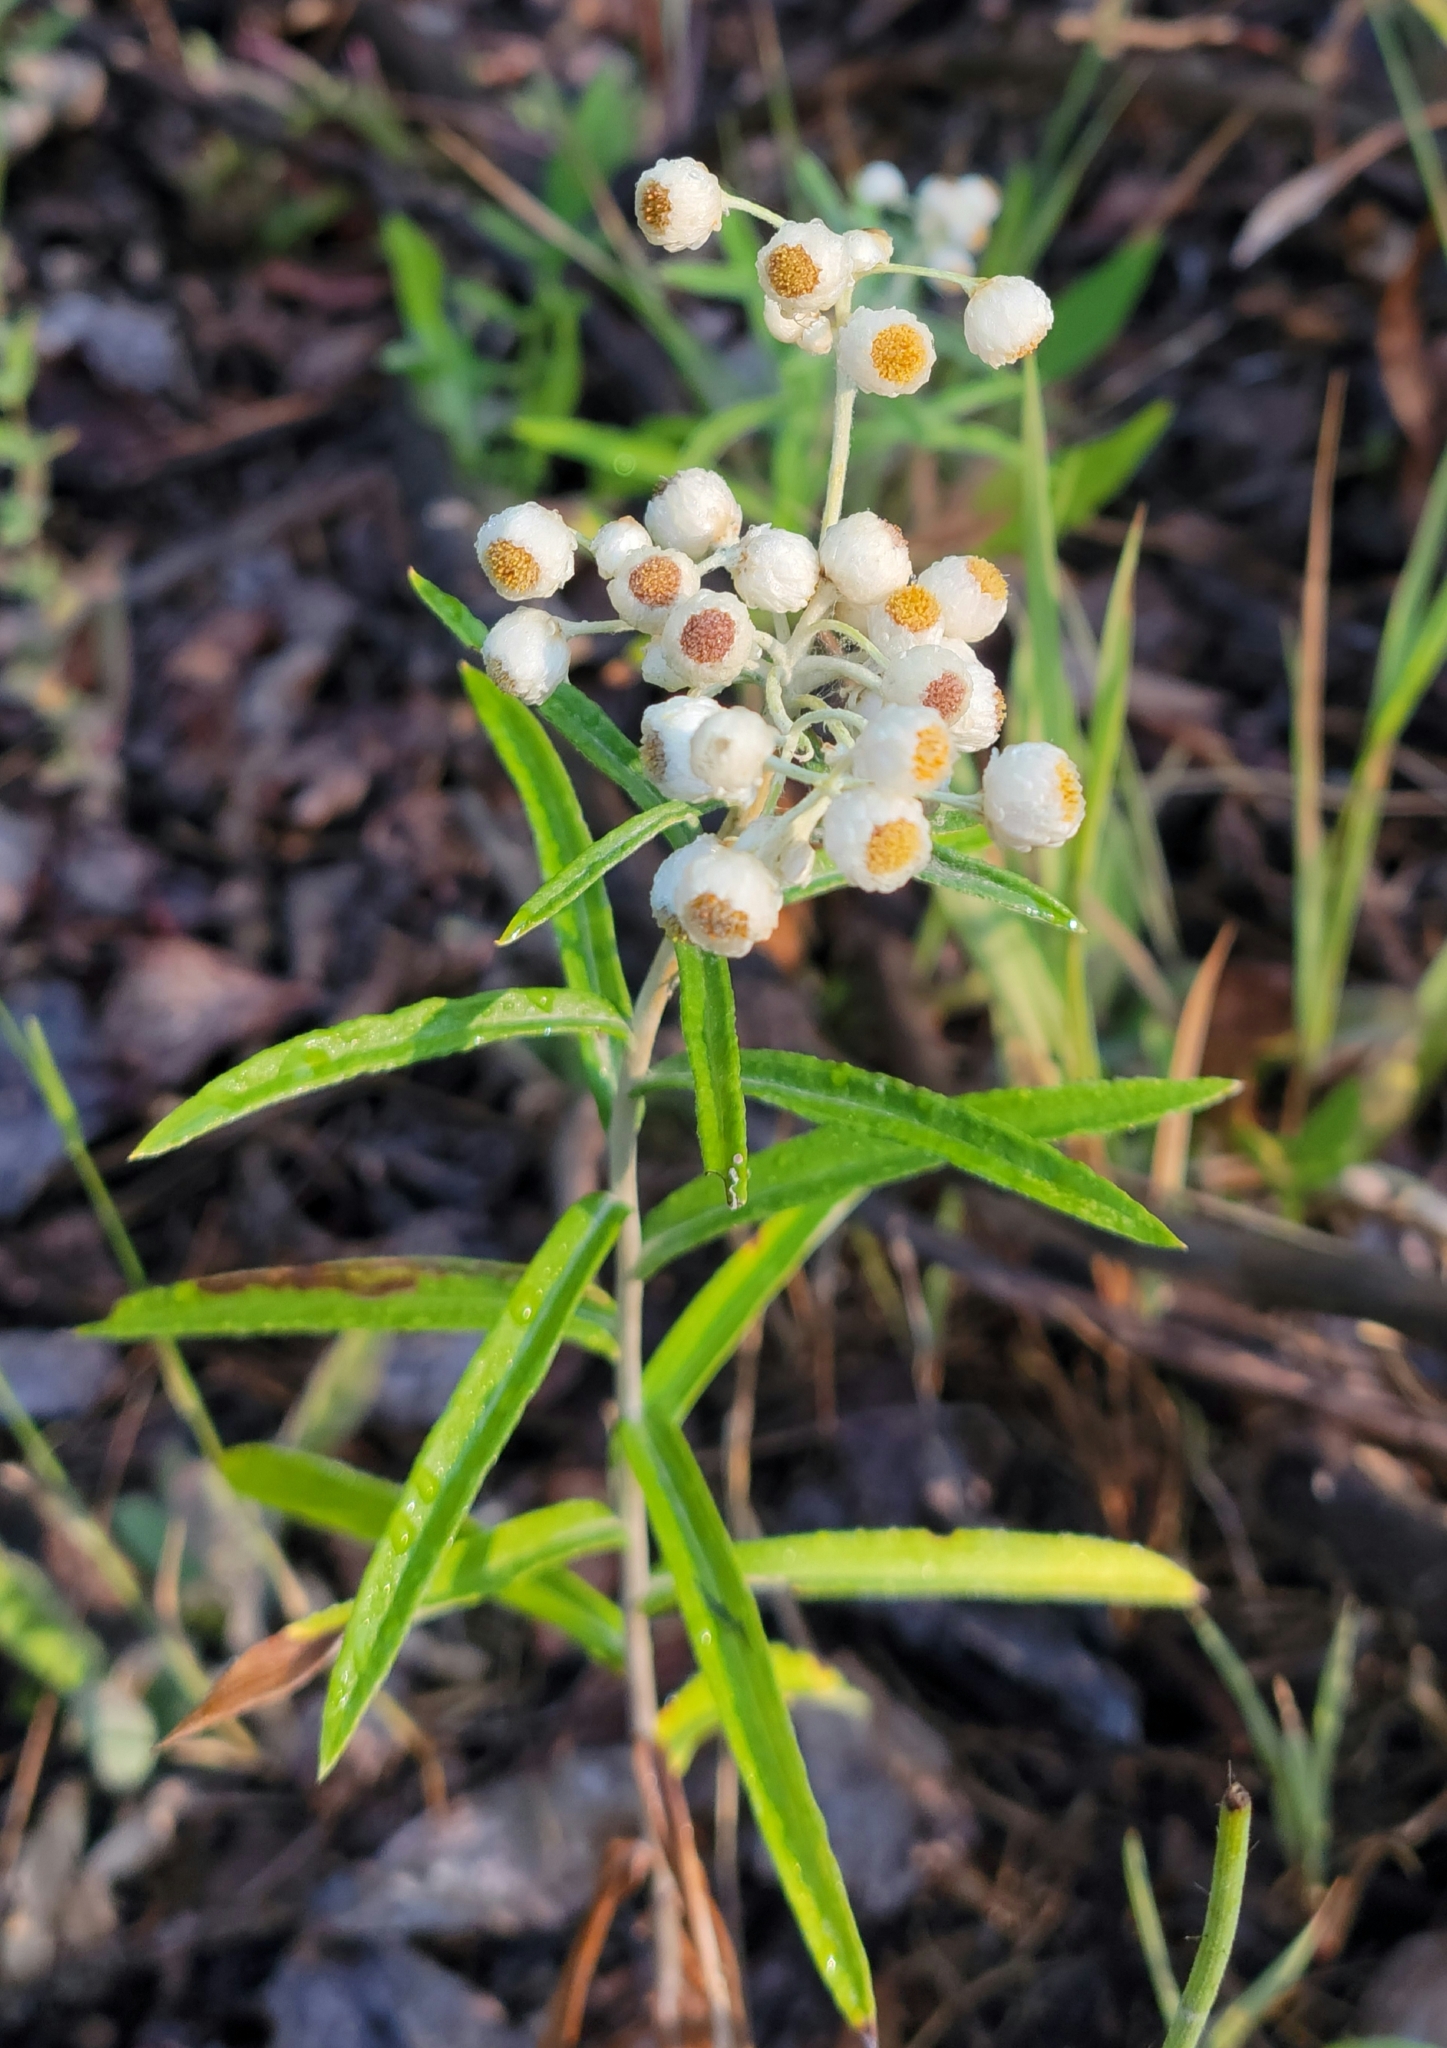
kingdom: Plantae
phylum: Tracheophyta
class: Magnoliopsida
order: Asterales
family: Asteraceae
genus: Anaphalis
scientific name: Anaphalis margaritacea
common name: Pearly everlasting
